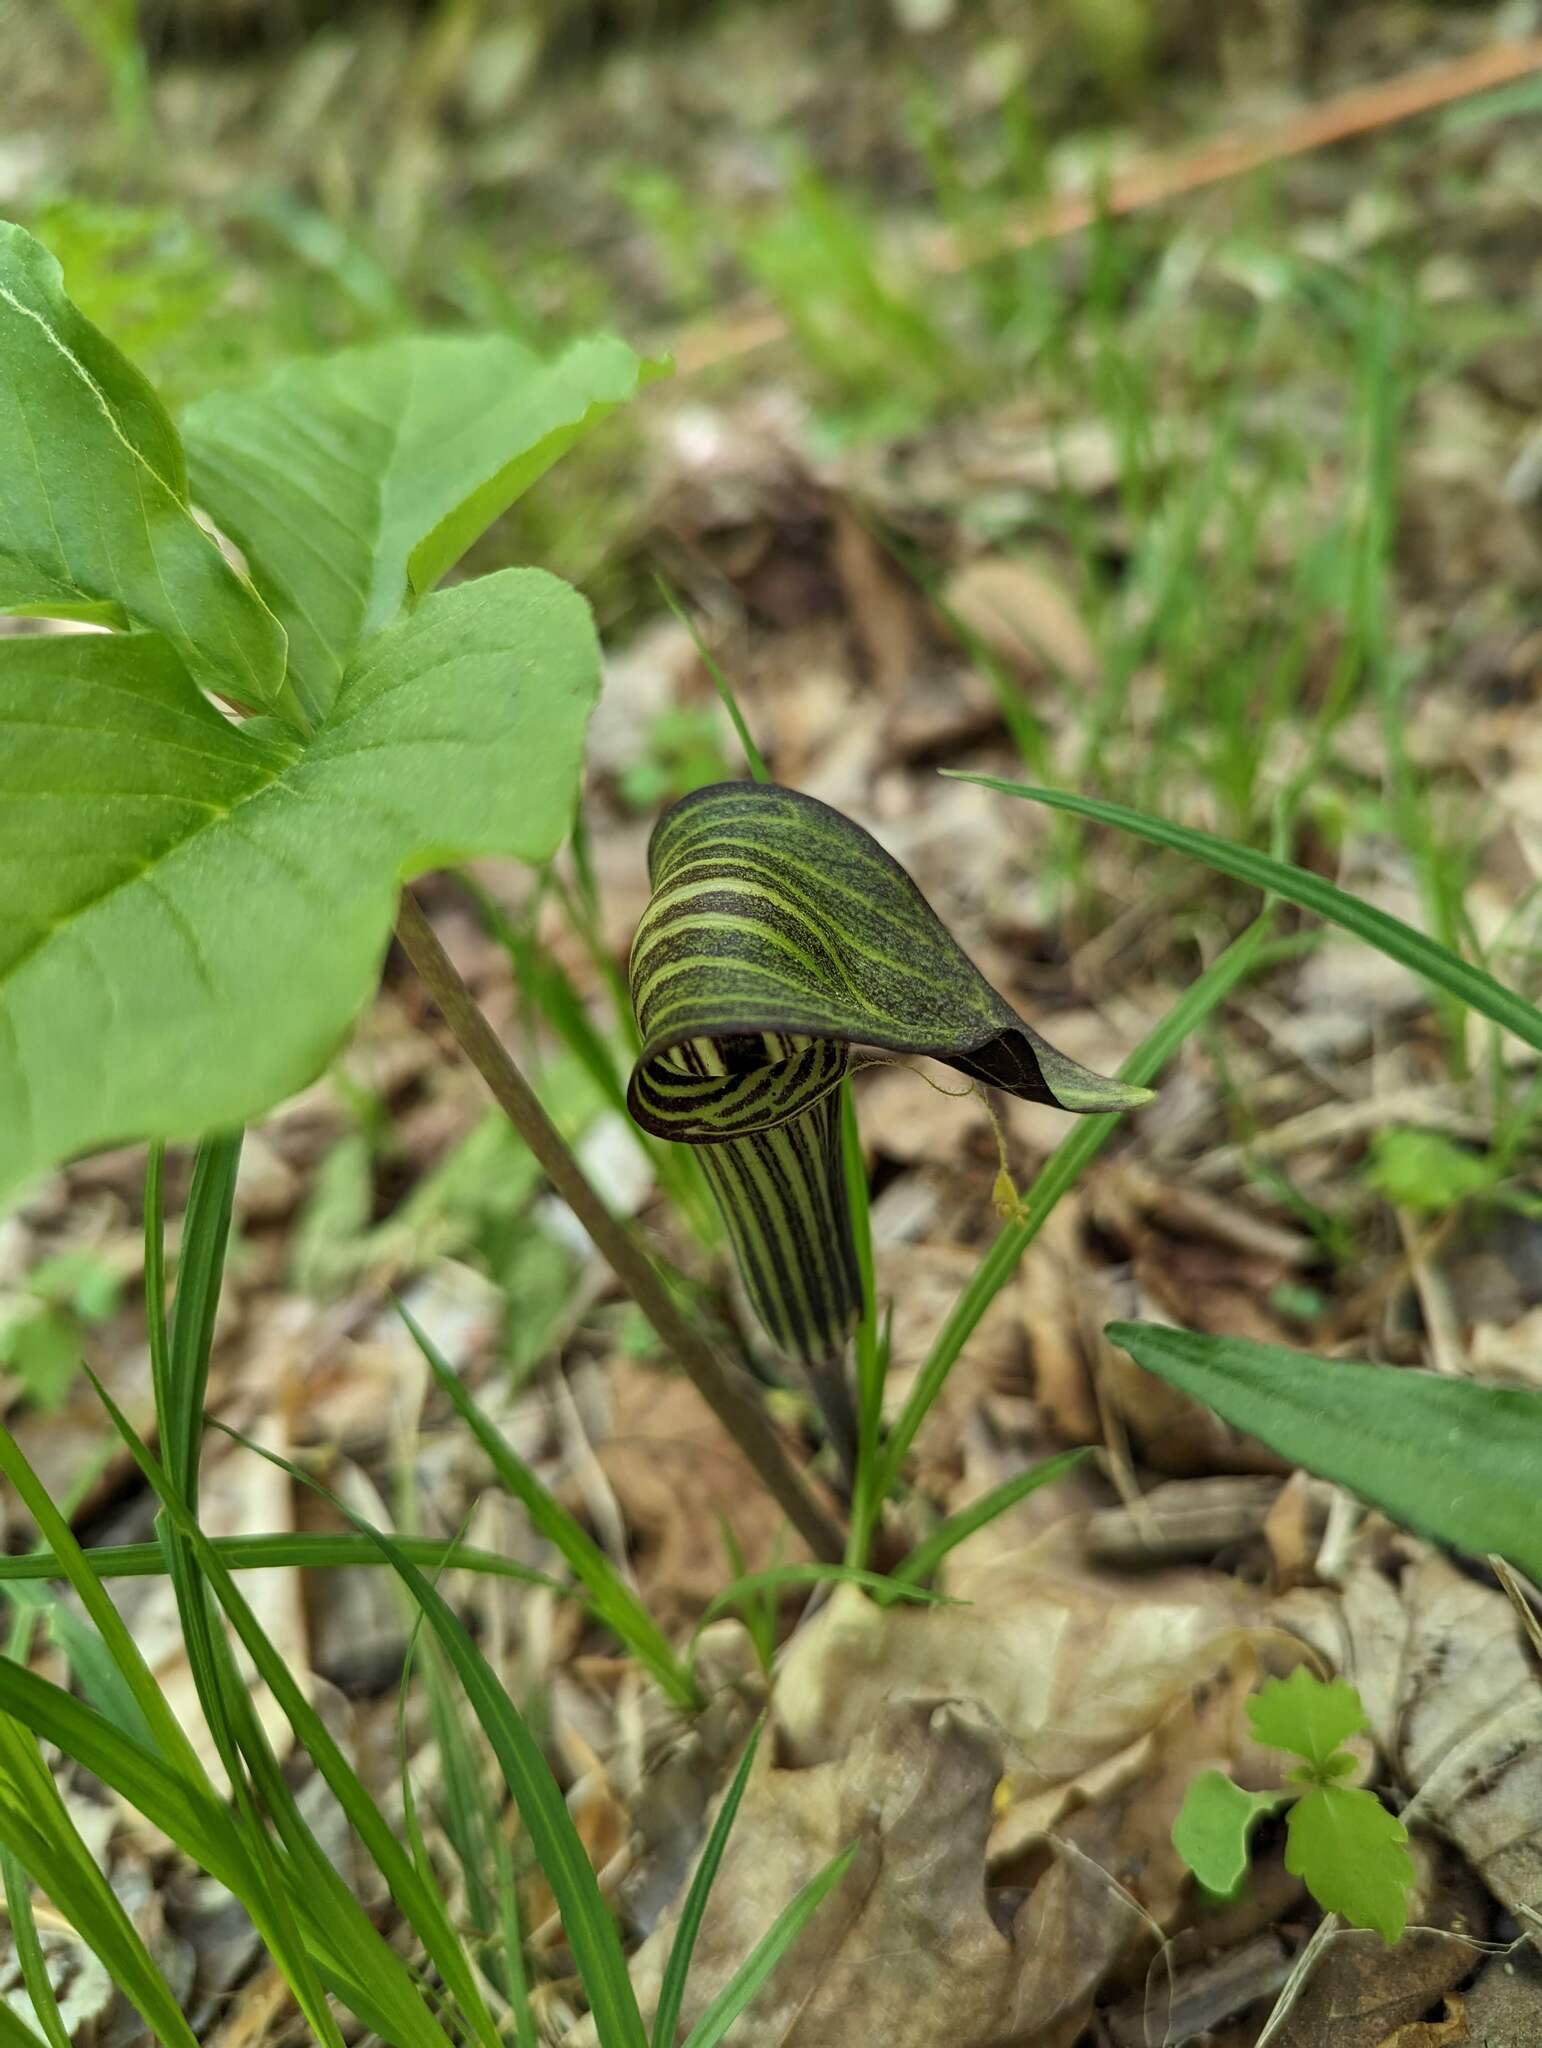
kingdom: Plantae
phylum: Tracheophyta
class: Liliopsida
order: Alismatales
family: Araceae
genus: Arisaema
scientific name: Arisaema triphyllum
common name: Jack-in-the-pulpit
